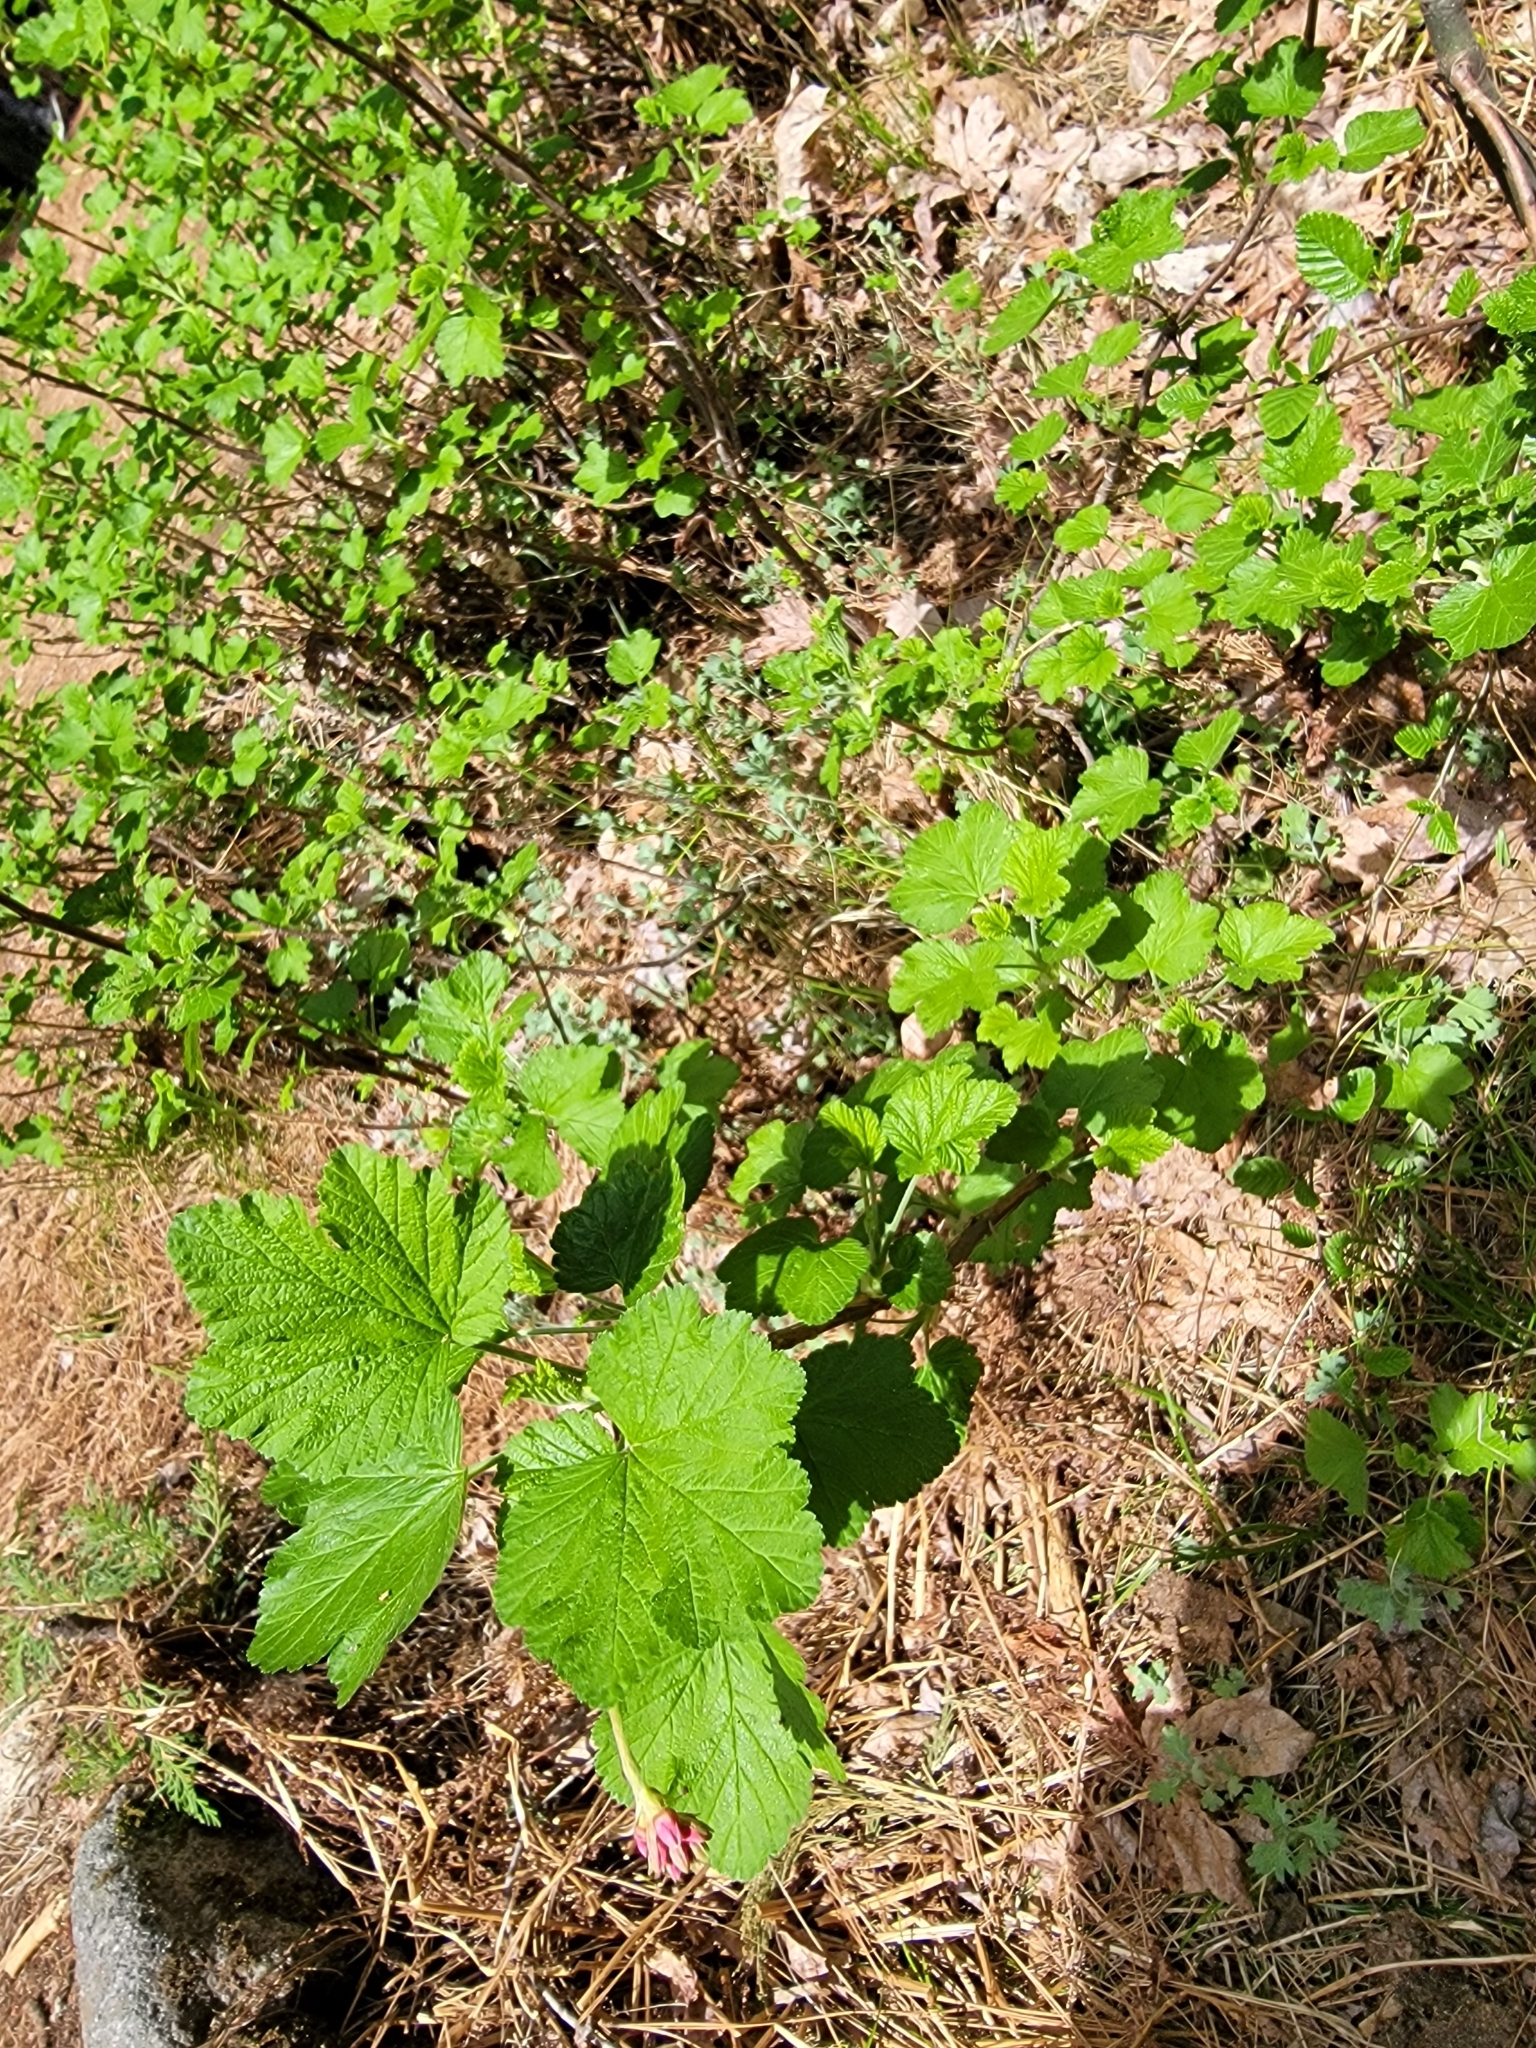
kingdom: Plantae
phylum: Tracheophyta
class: Magnoliopsida
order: Saxifragales
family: Grossulariaceae
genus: Ribes
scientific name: Ribes nevadense
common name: Mountain pink currant
